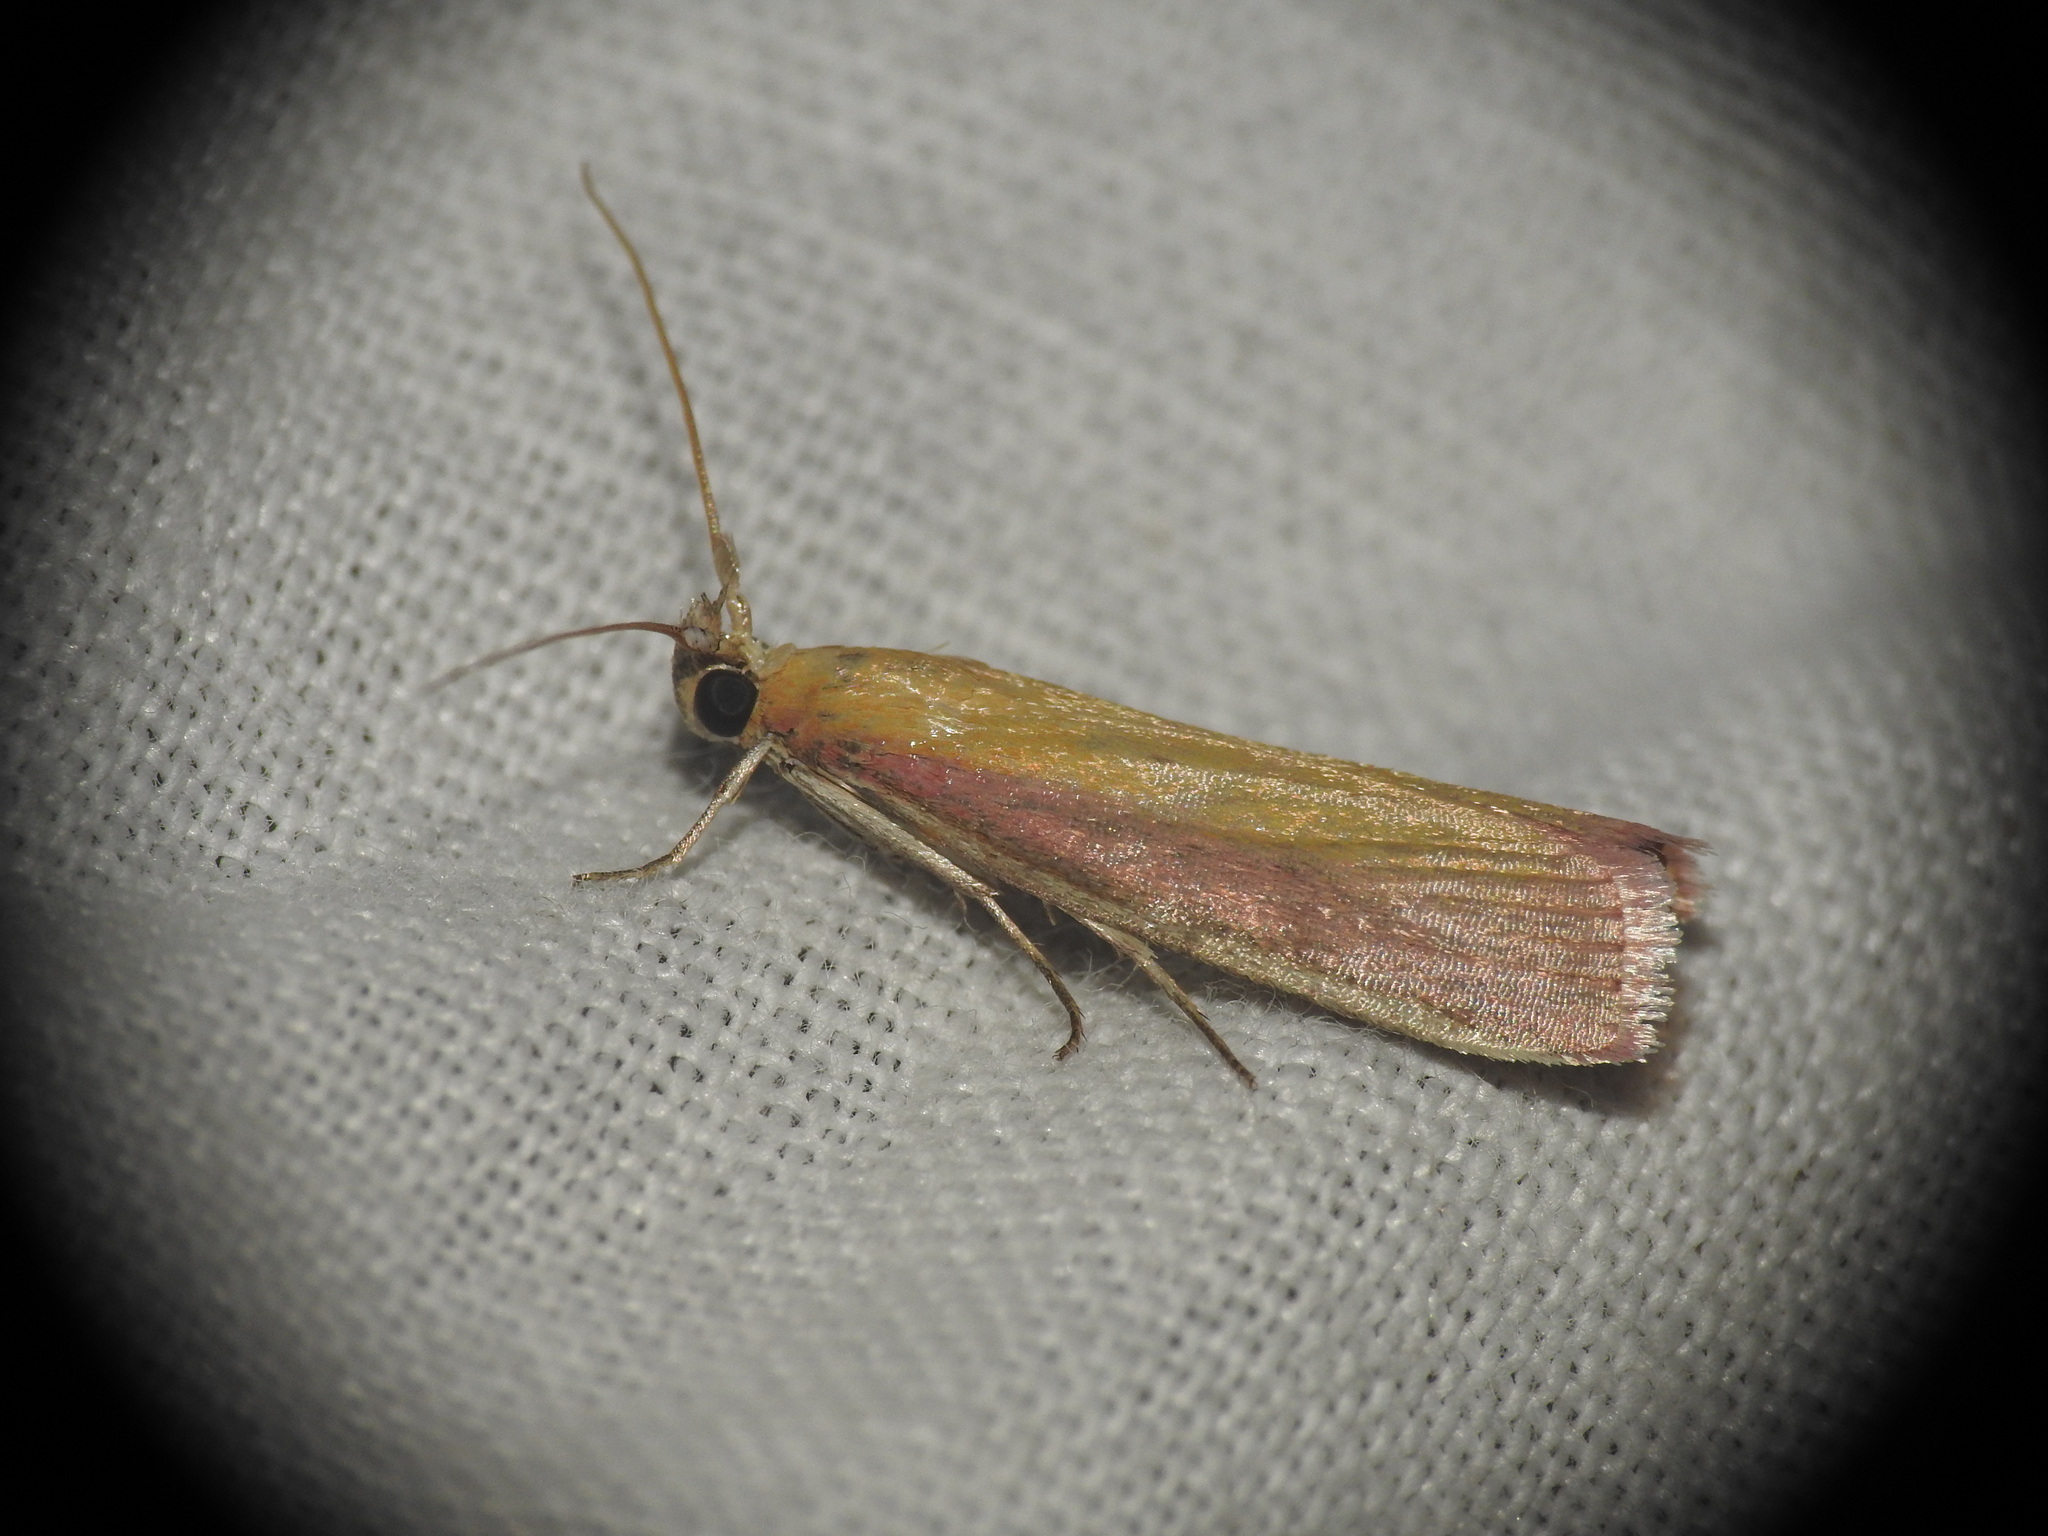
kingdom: Animalia
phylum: Arthropoda
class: Insecta
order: Lepidoptera
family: Pyralidae
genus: Oncocera
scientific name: Oncocera semirubella
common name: Rosy-striped knot-horn
